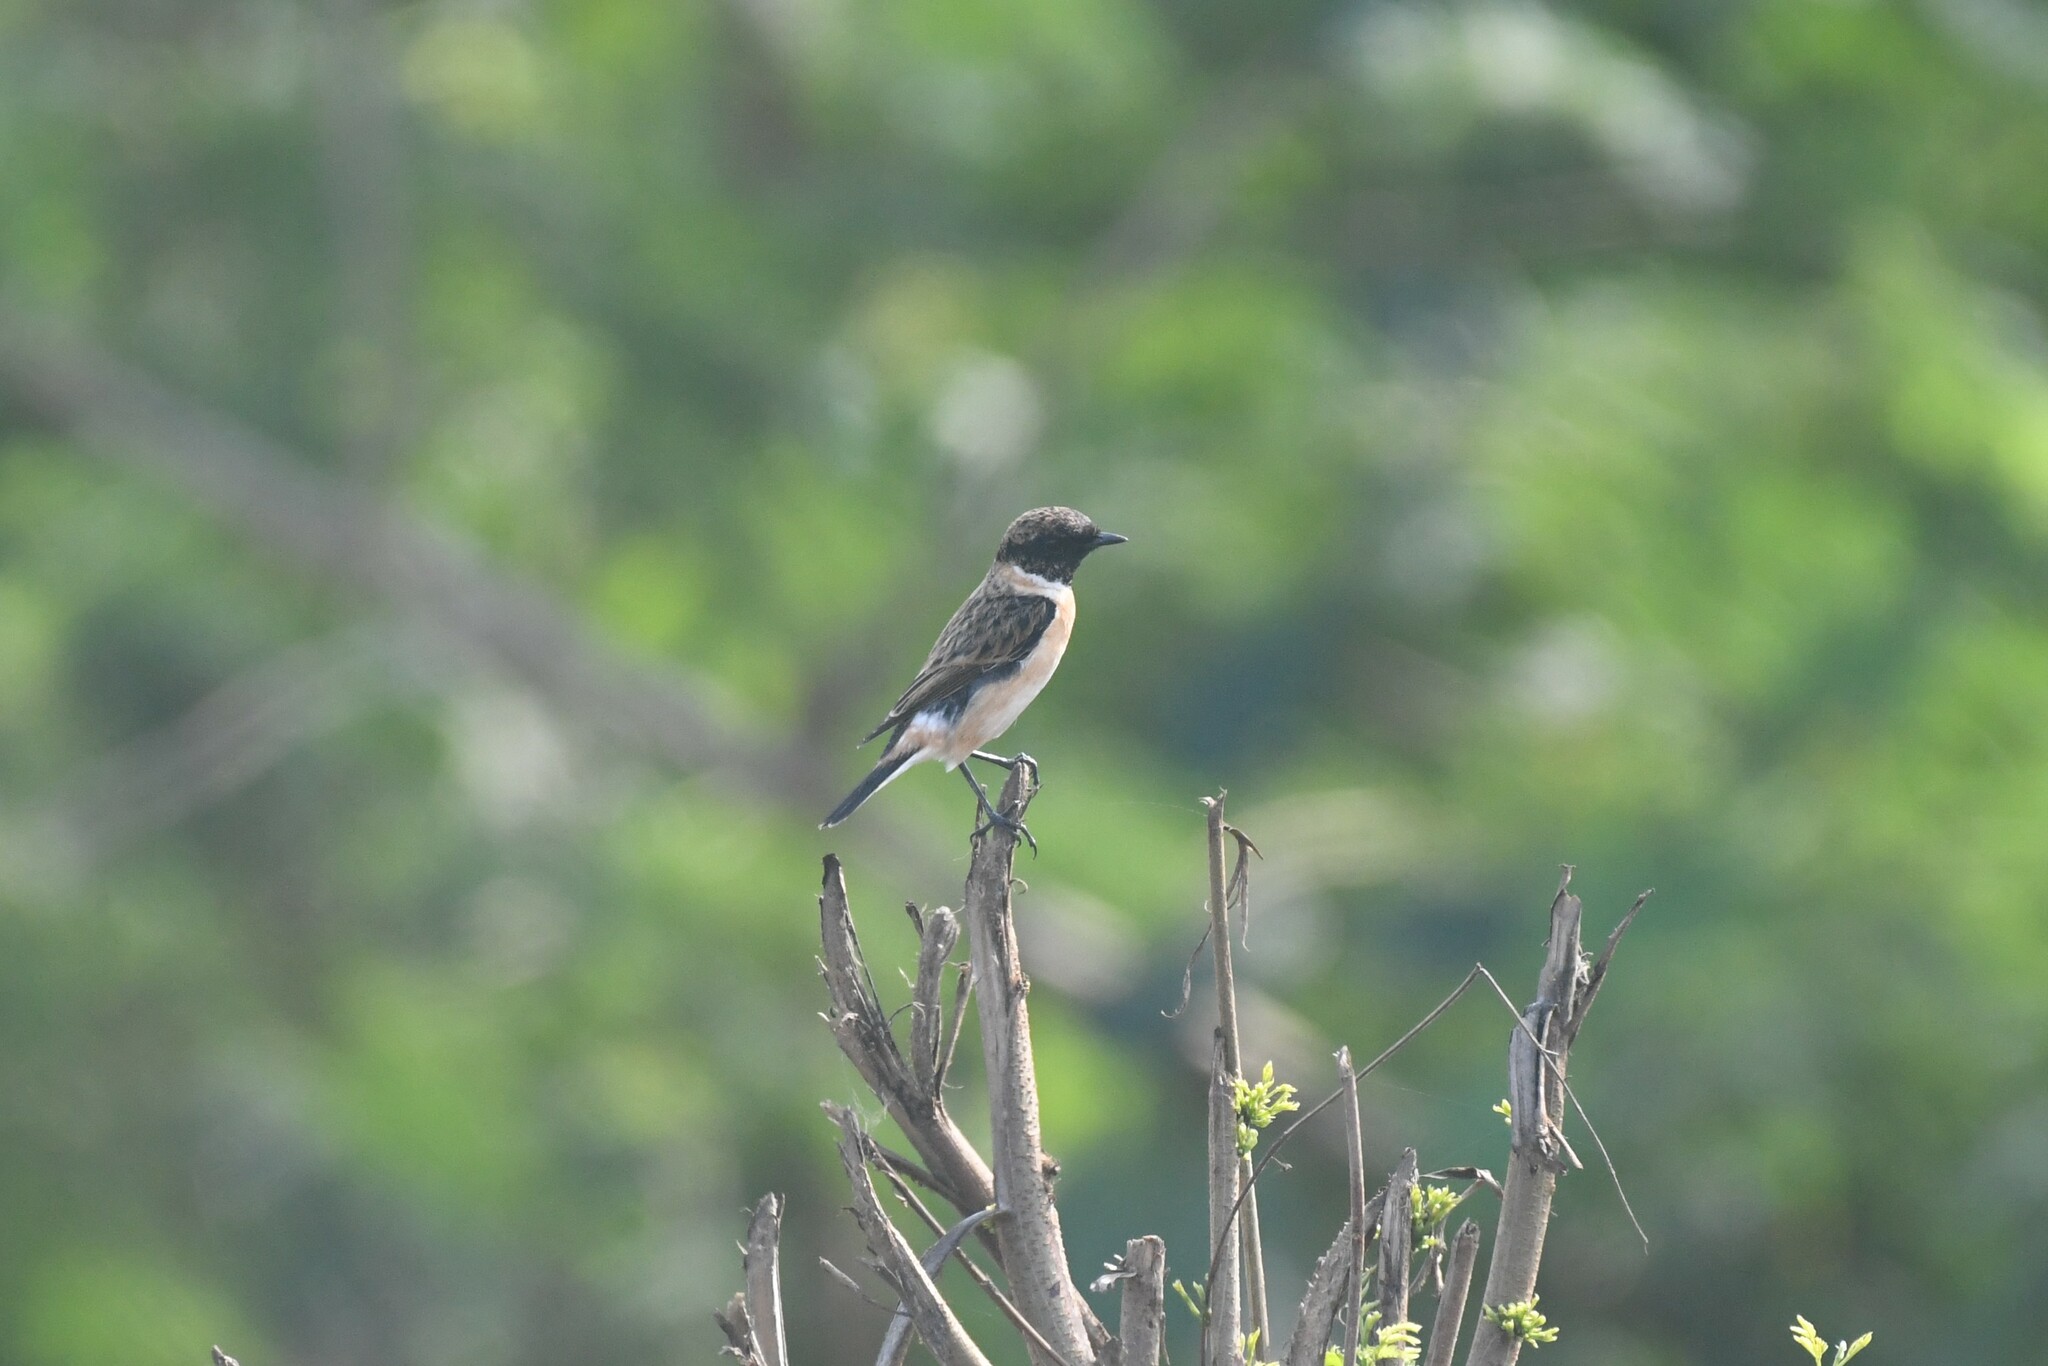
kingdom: Animalia
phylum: Chordata
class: Aves
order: Passeriformes
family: Muscicapidae
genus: Saxicola
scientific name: Saxicola stejnegeri
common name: Stejneger's stonechat
